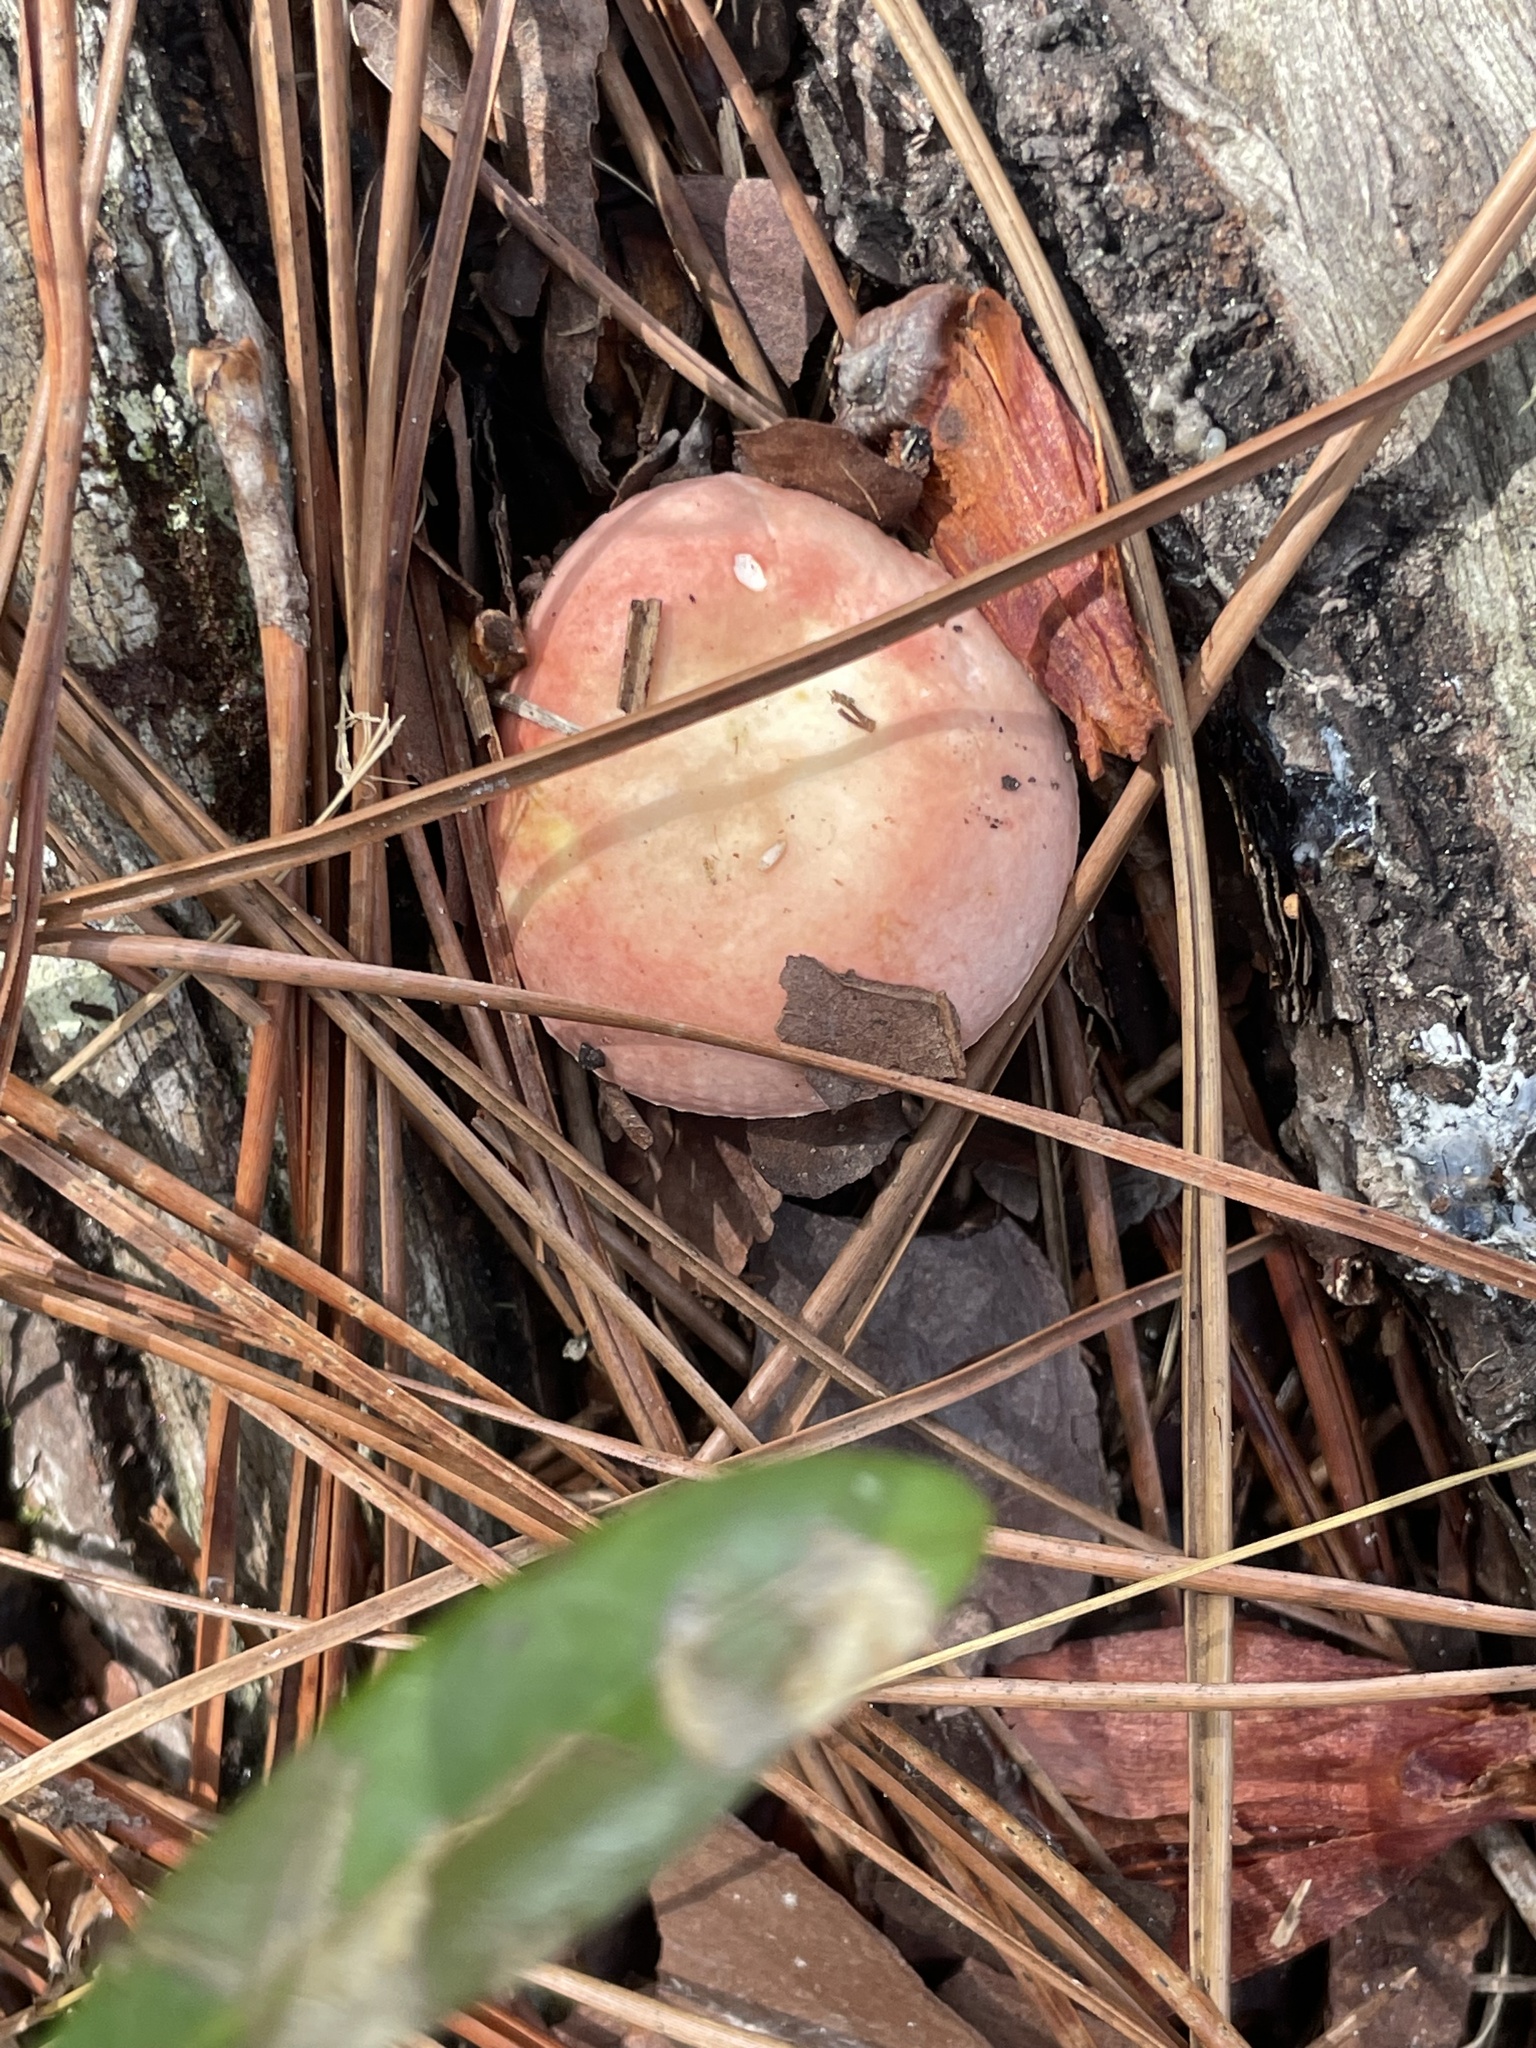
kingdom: Fungi
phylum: Basidiomycota
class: Agaricomycetes
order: Russulales
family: Russulaceae
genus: Russula
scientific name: Russula
